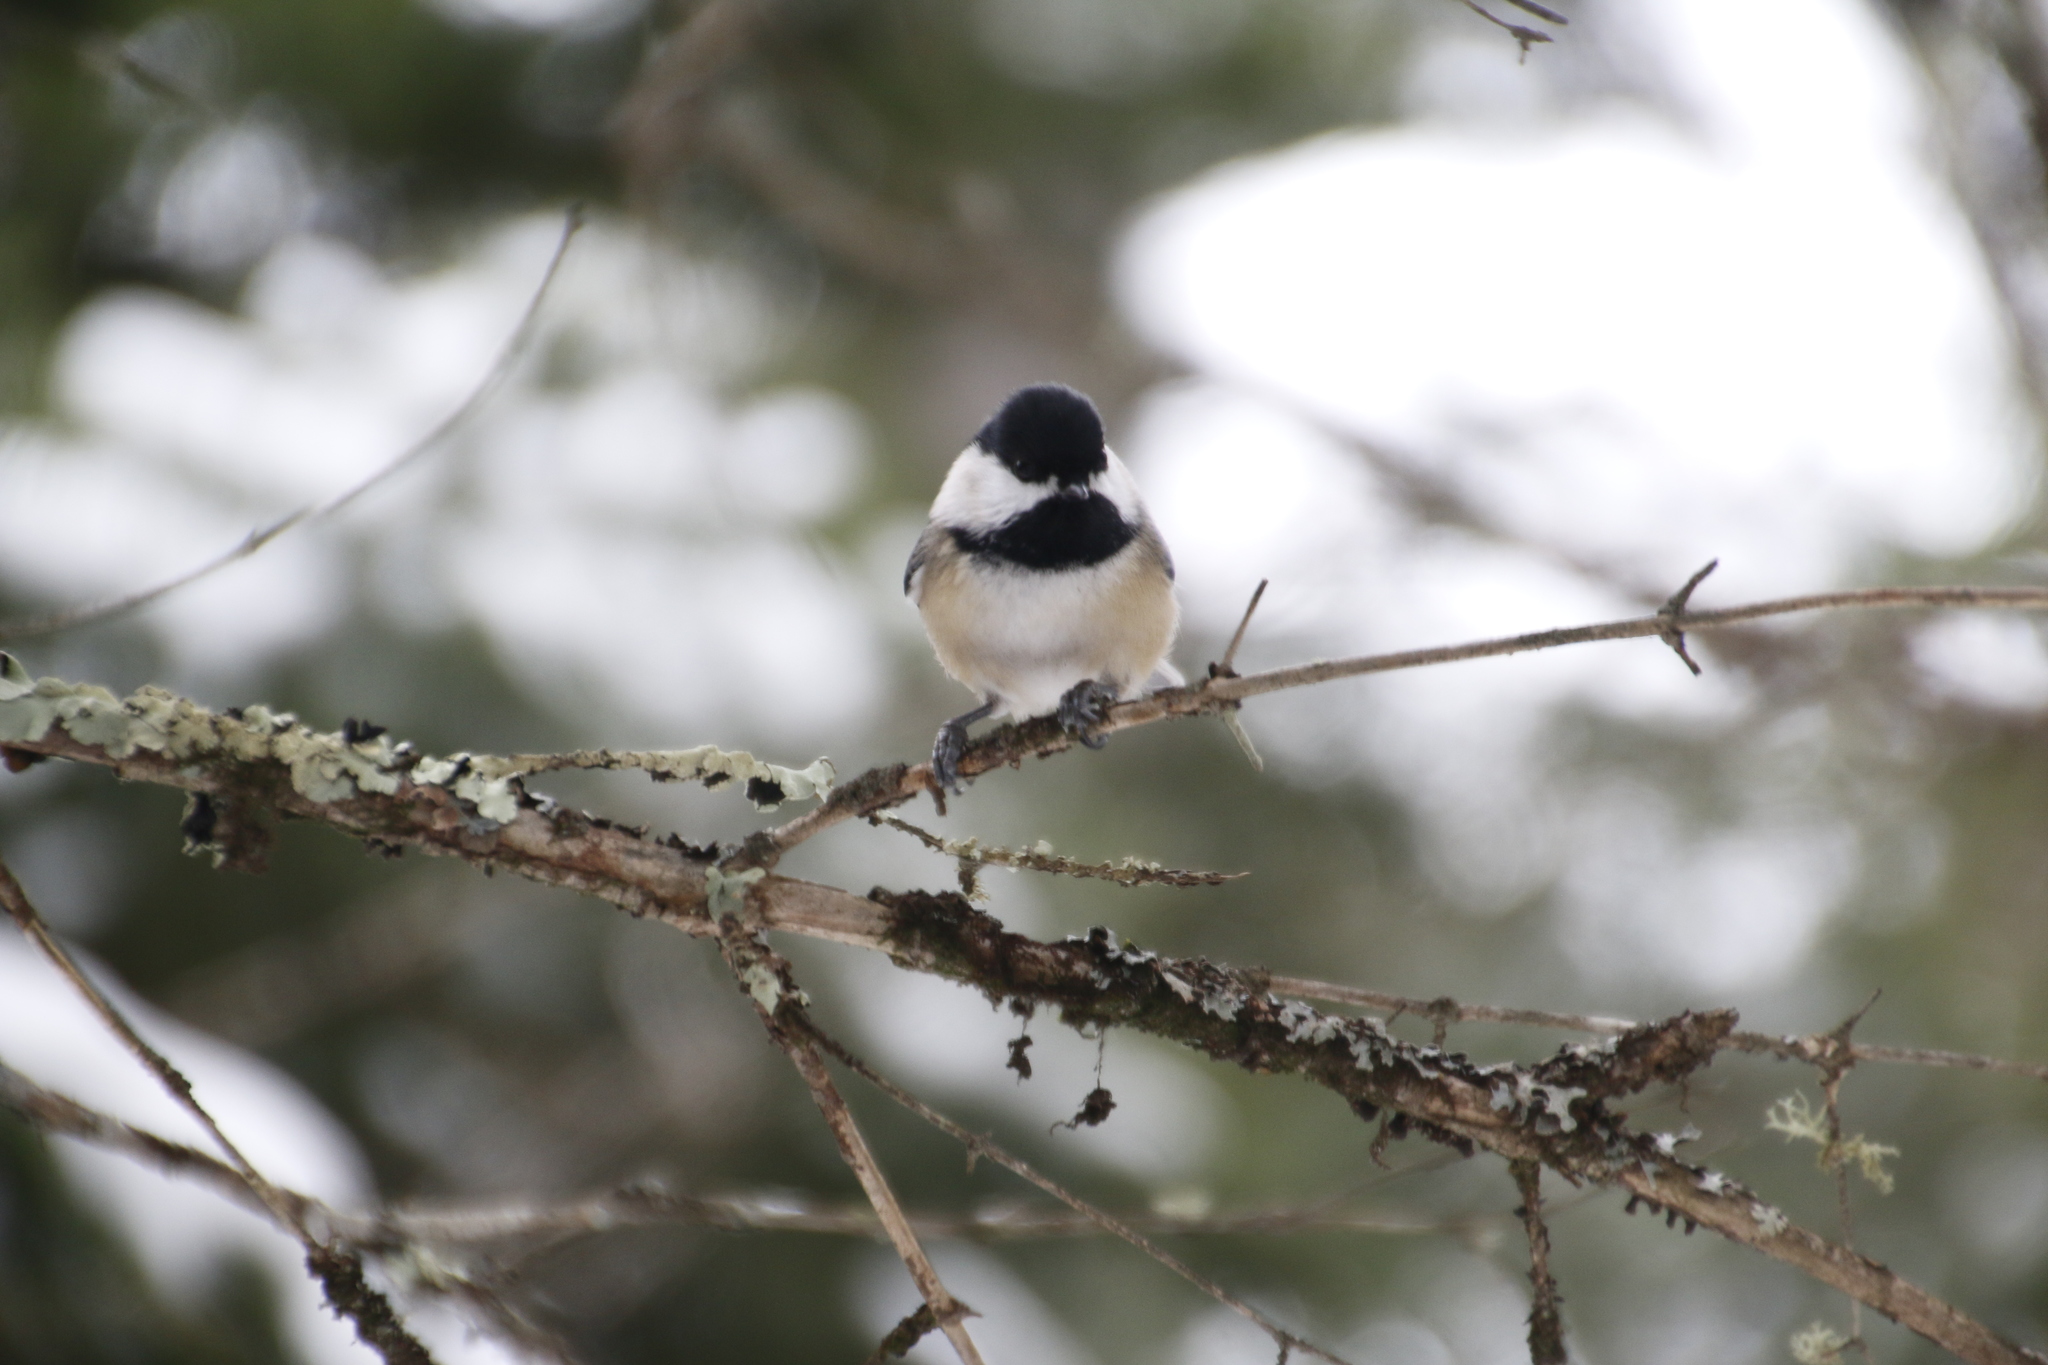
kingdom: Animalia
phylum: Chordata
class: Aves
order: Passeriformes
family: Paridae
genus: Poecile
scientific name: Poecile atricapillus
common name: Black-capped chickadee
